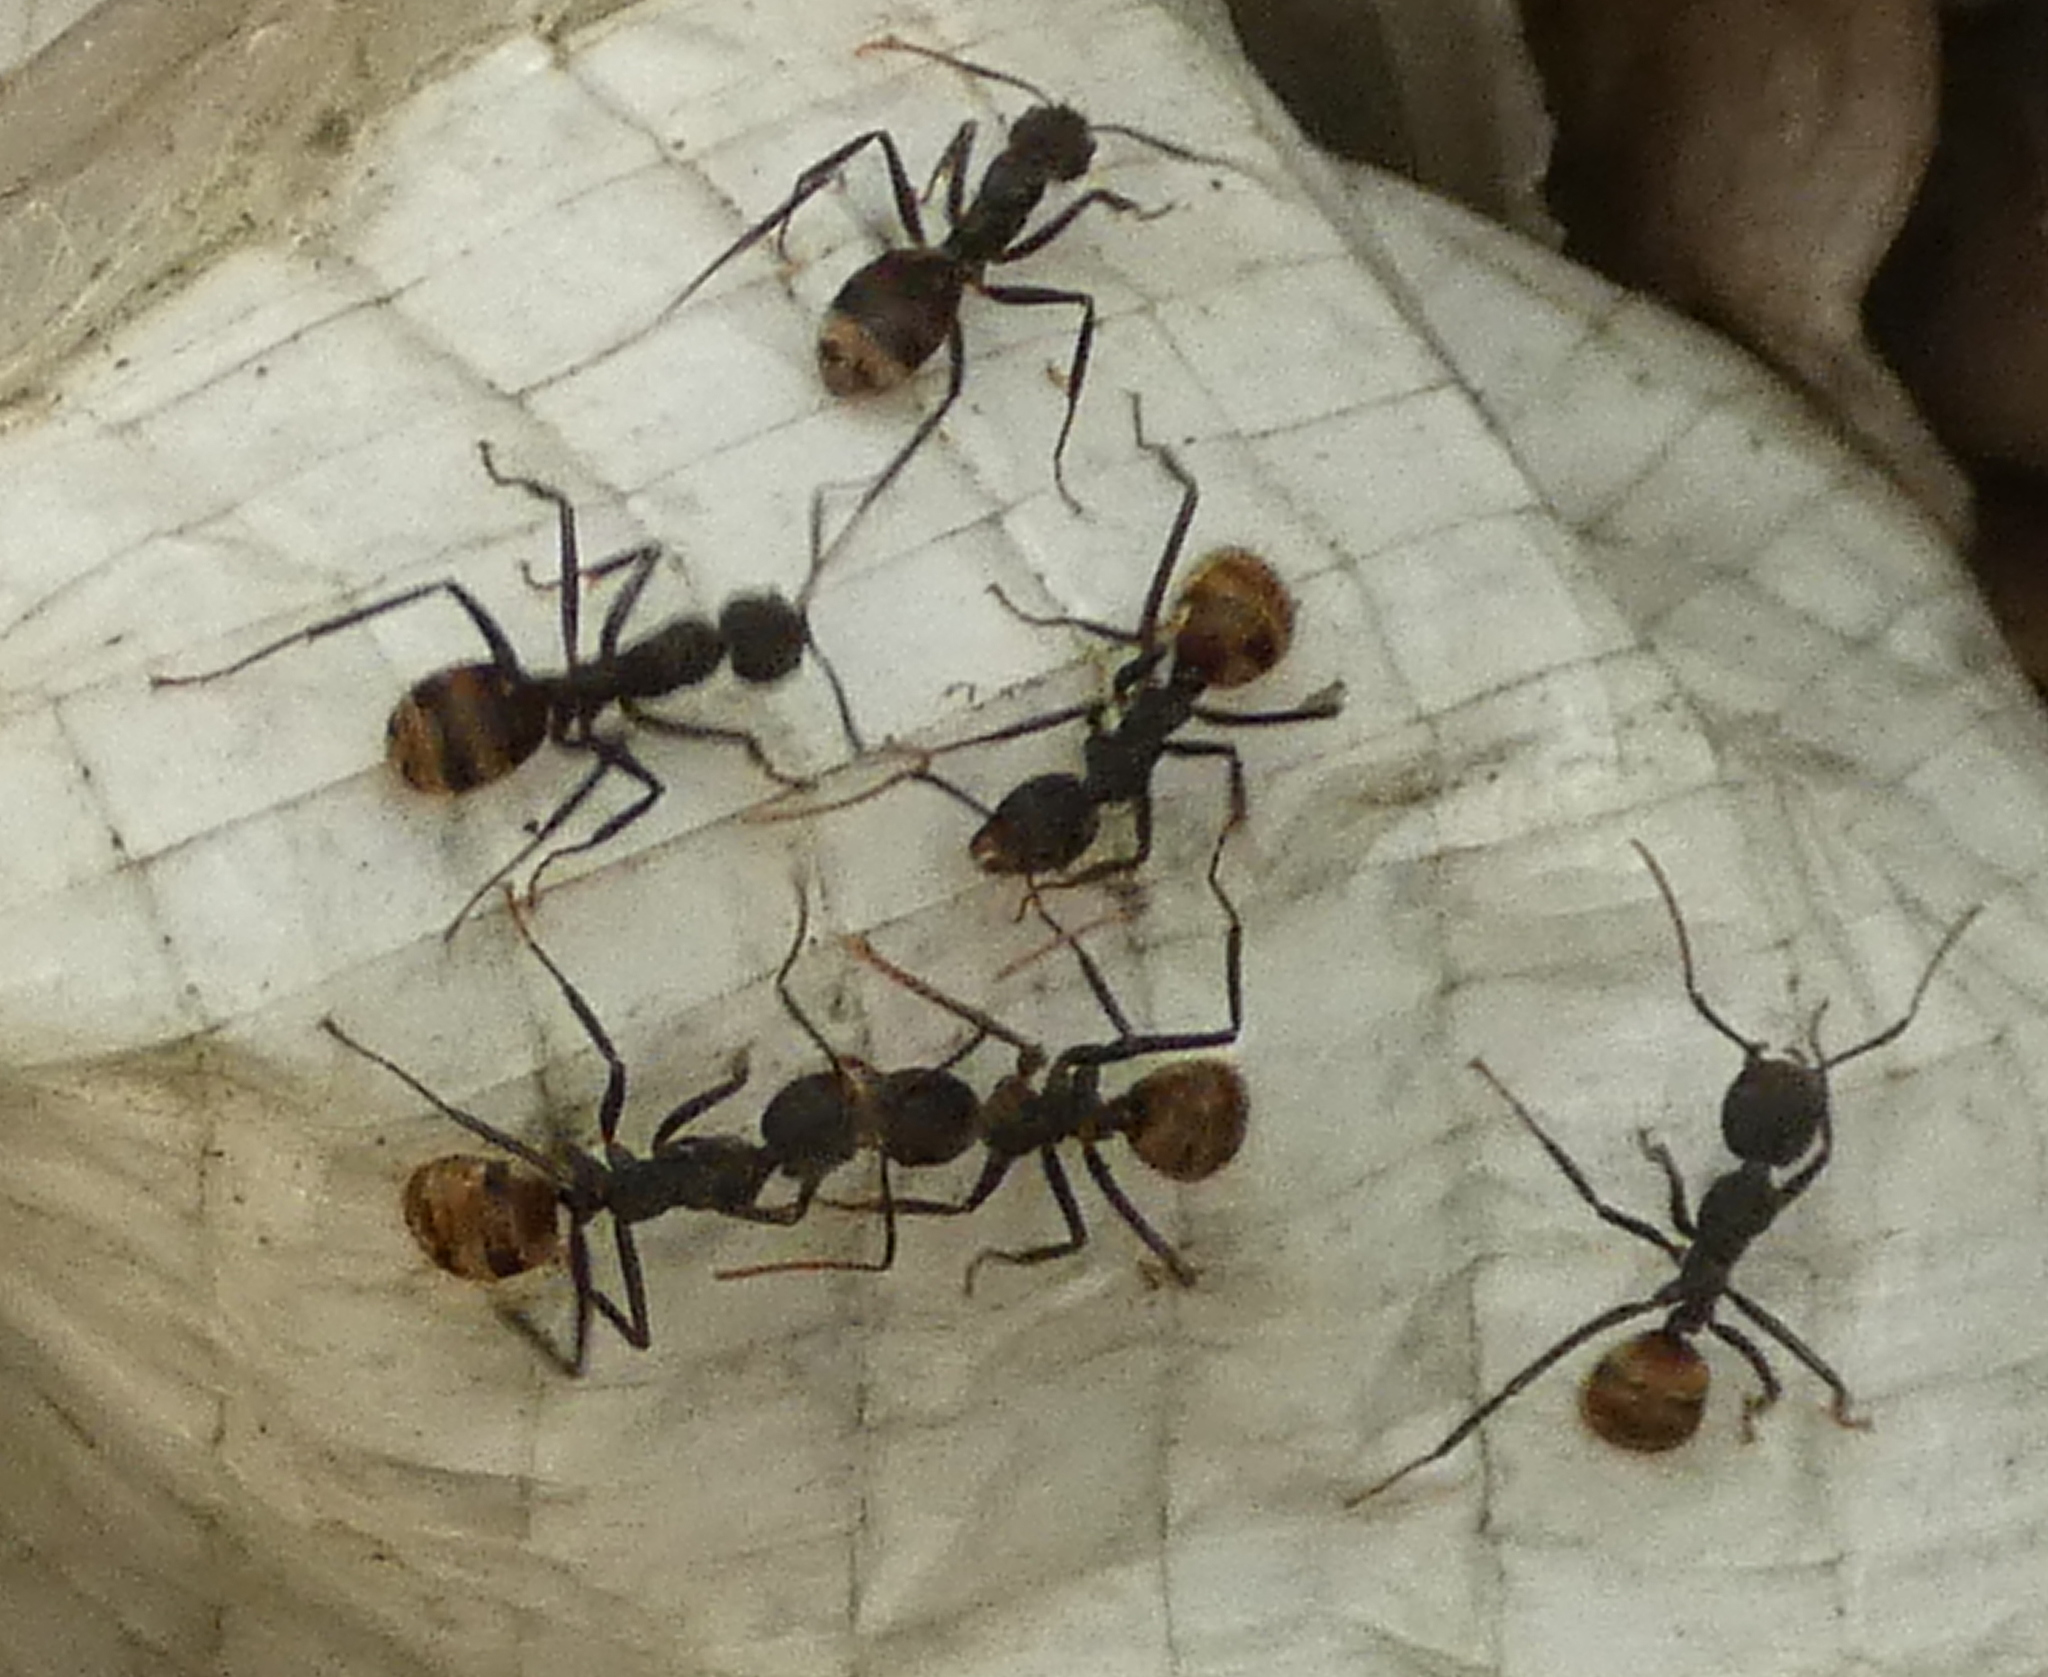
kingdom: Animalia
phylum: Arthropoda
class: Insecta
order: Hymenoptera
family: Formicidae
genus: Dolichoderus
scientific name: Dolichoderus bidens
